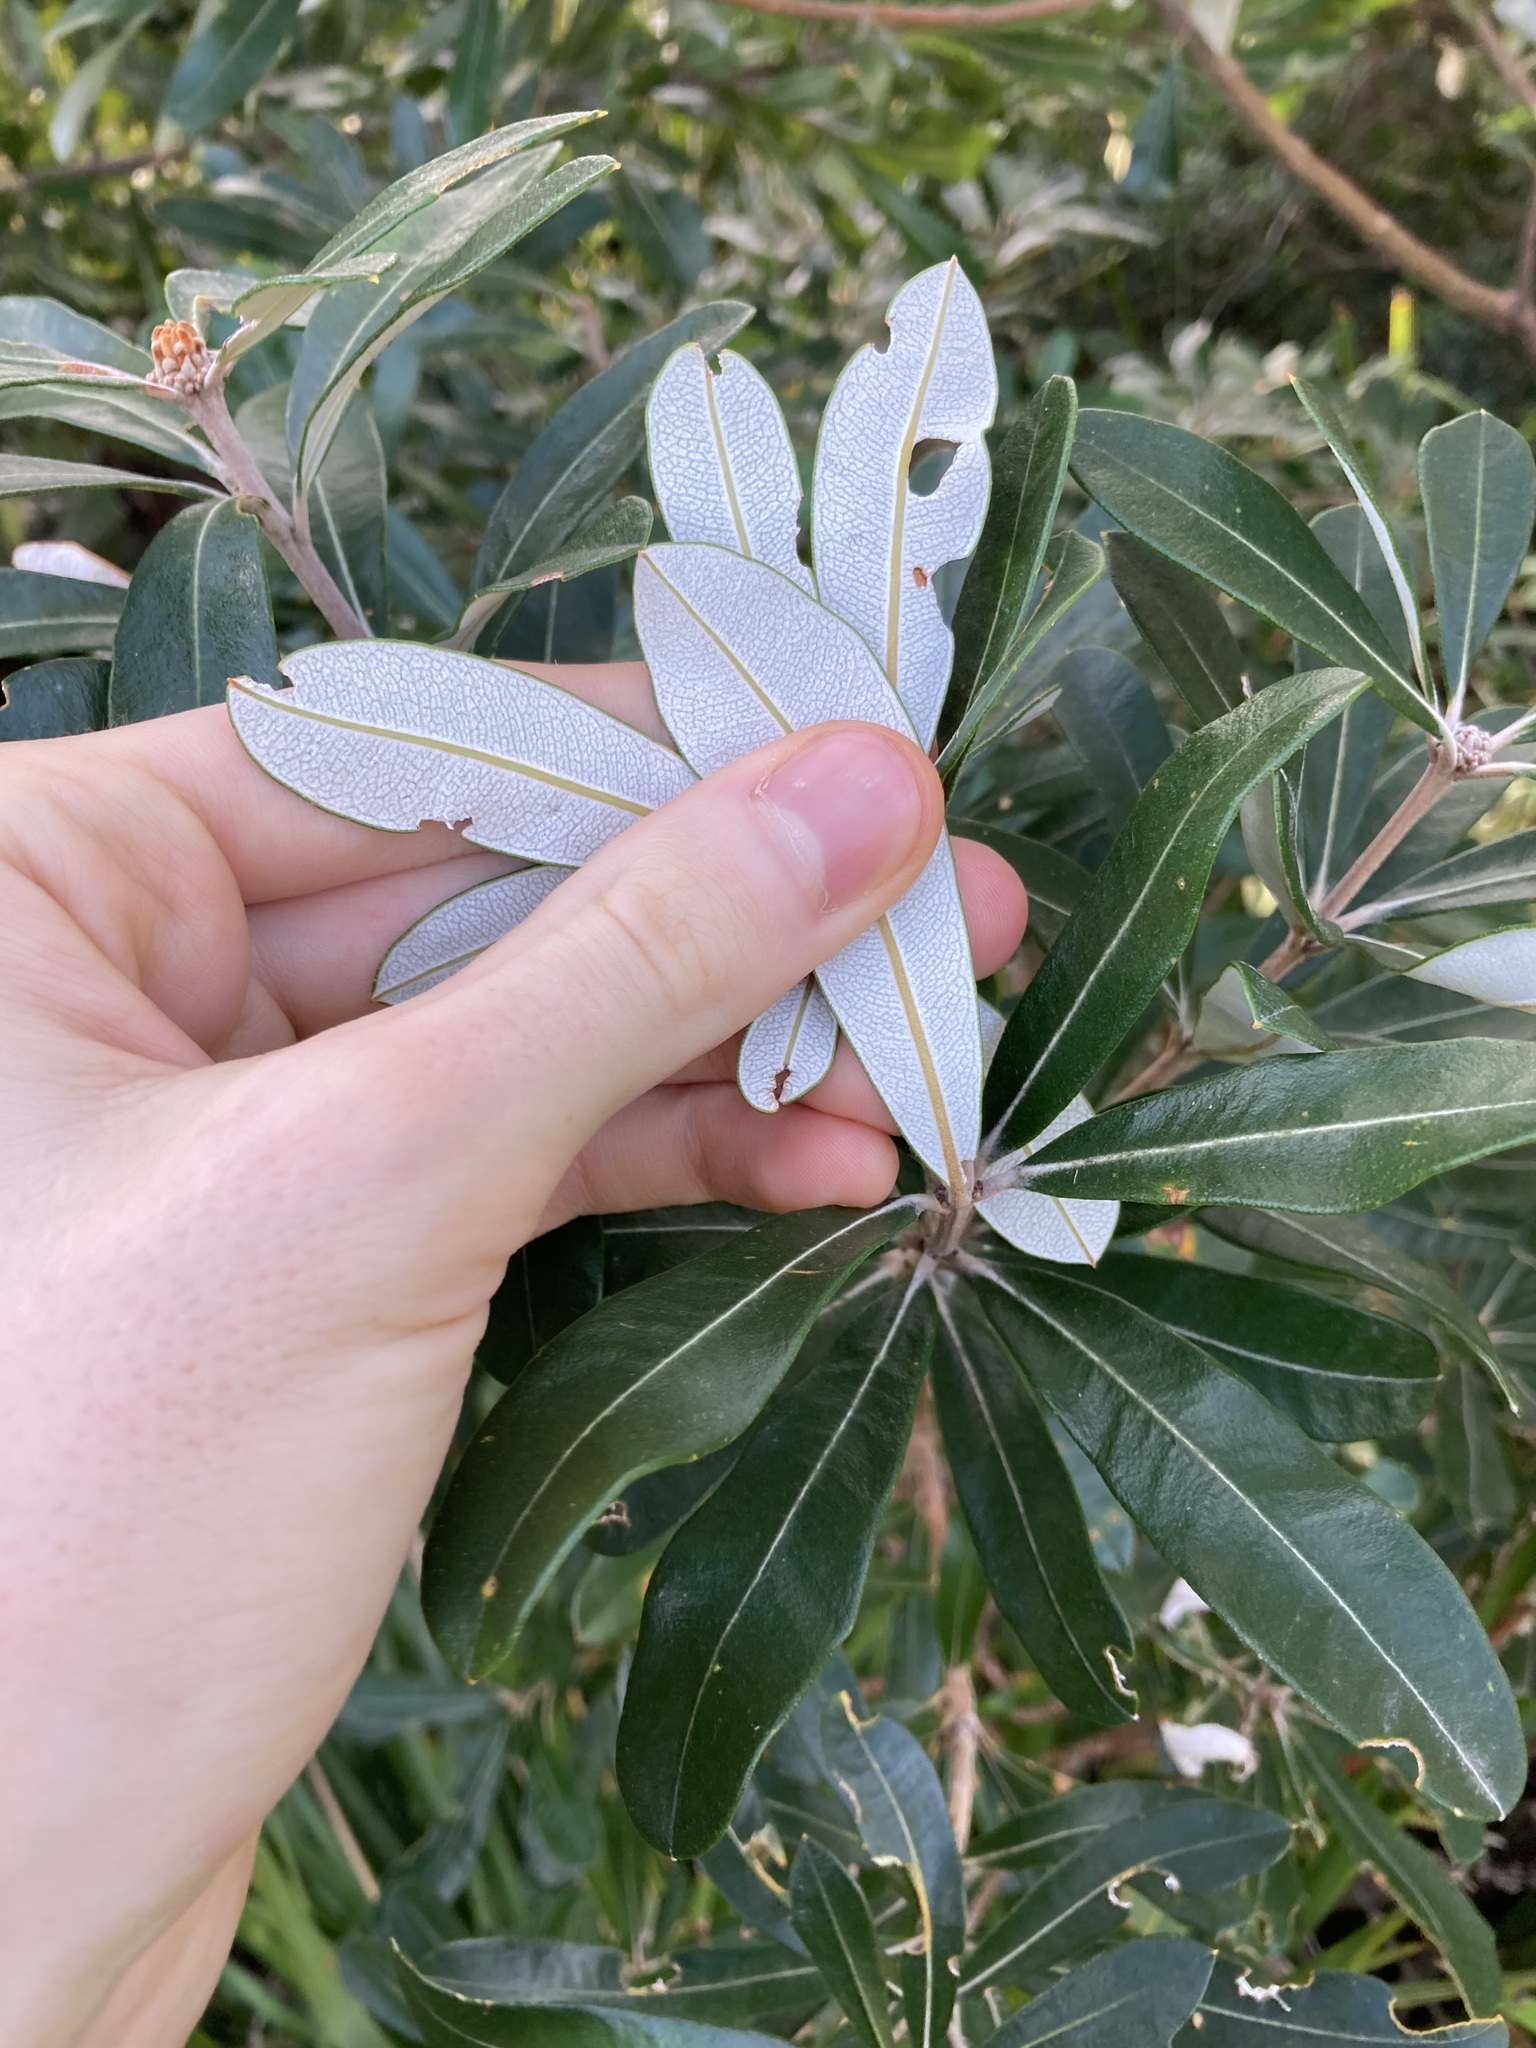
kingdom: Plantae
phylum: Tracheophyta
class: Magnoliopsida
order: Proteales
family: Proteaceae
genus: Banksia
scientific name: Banksia integrifolia
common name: White-honeysuckle
